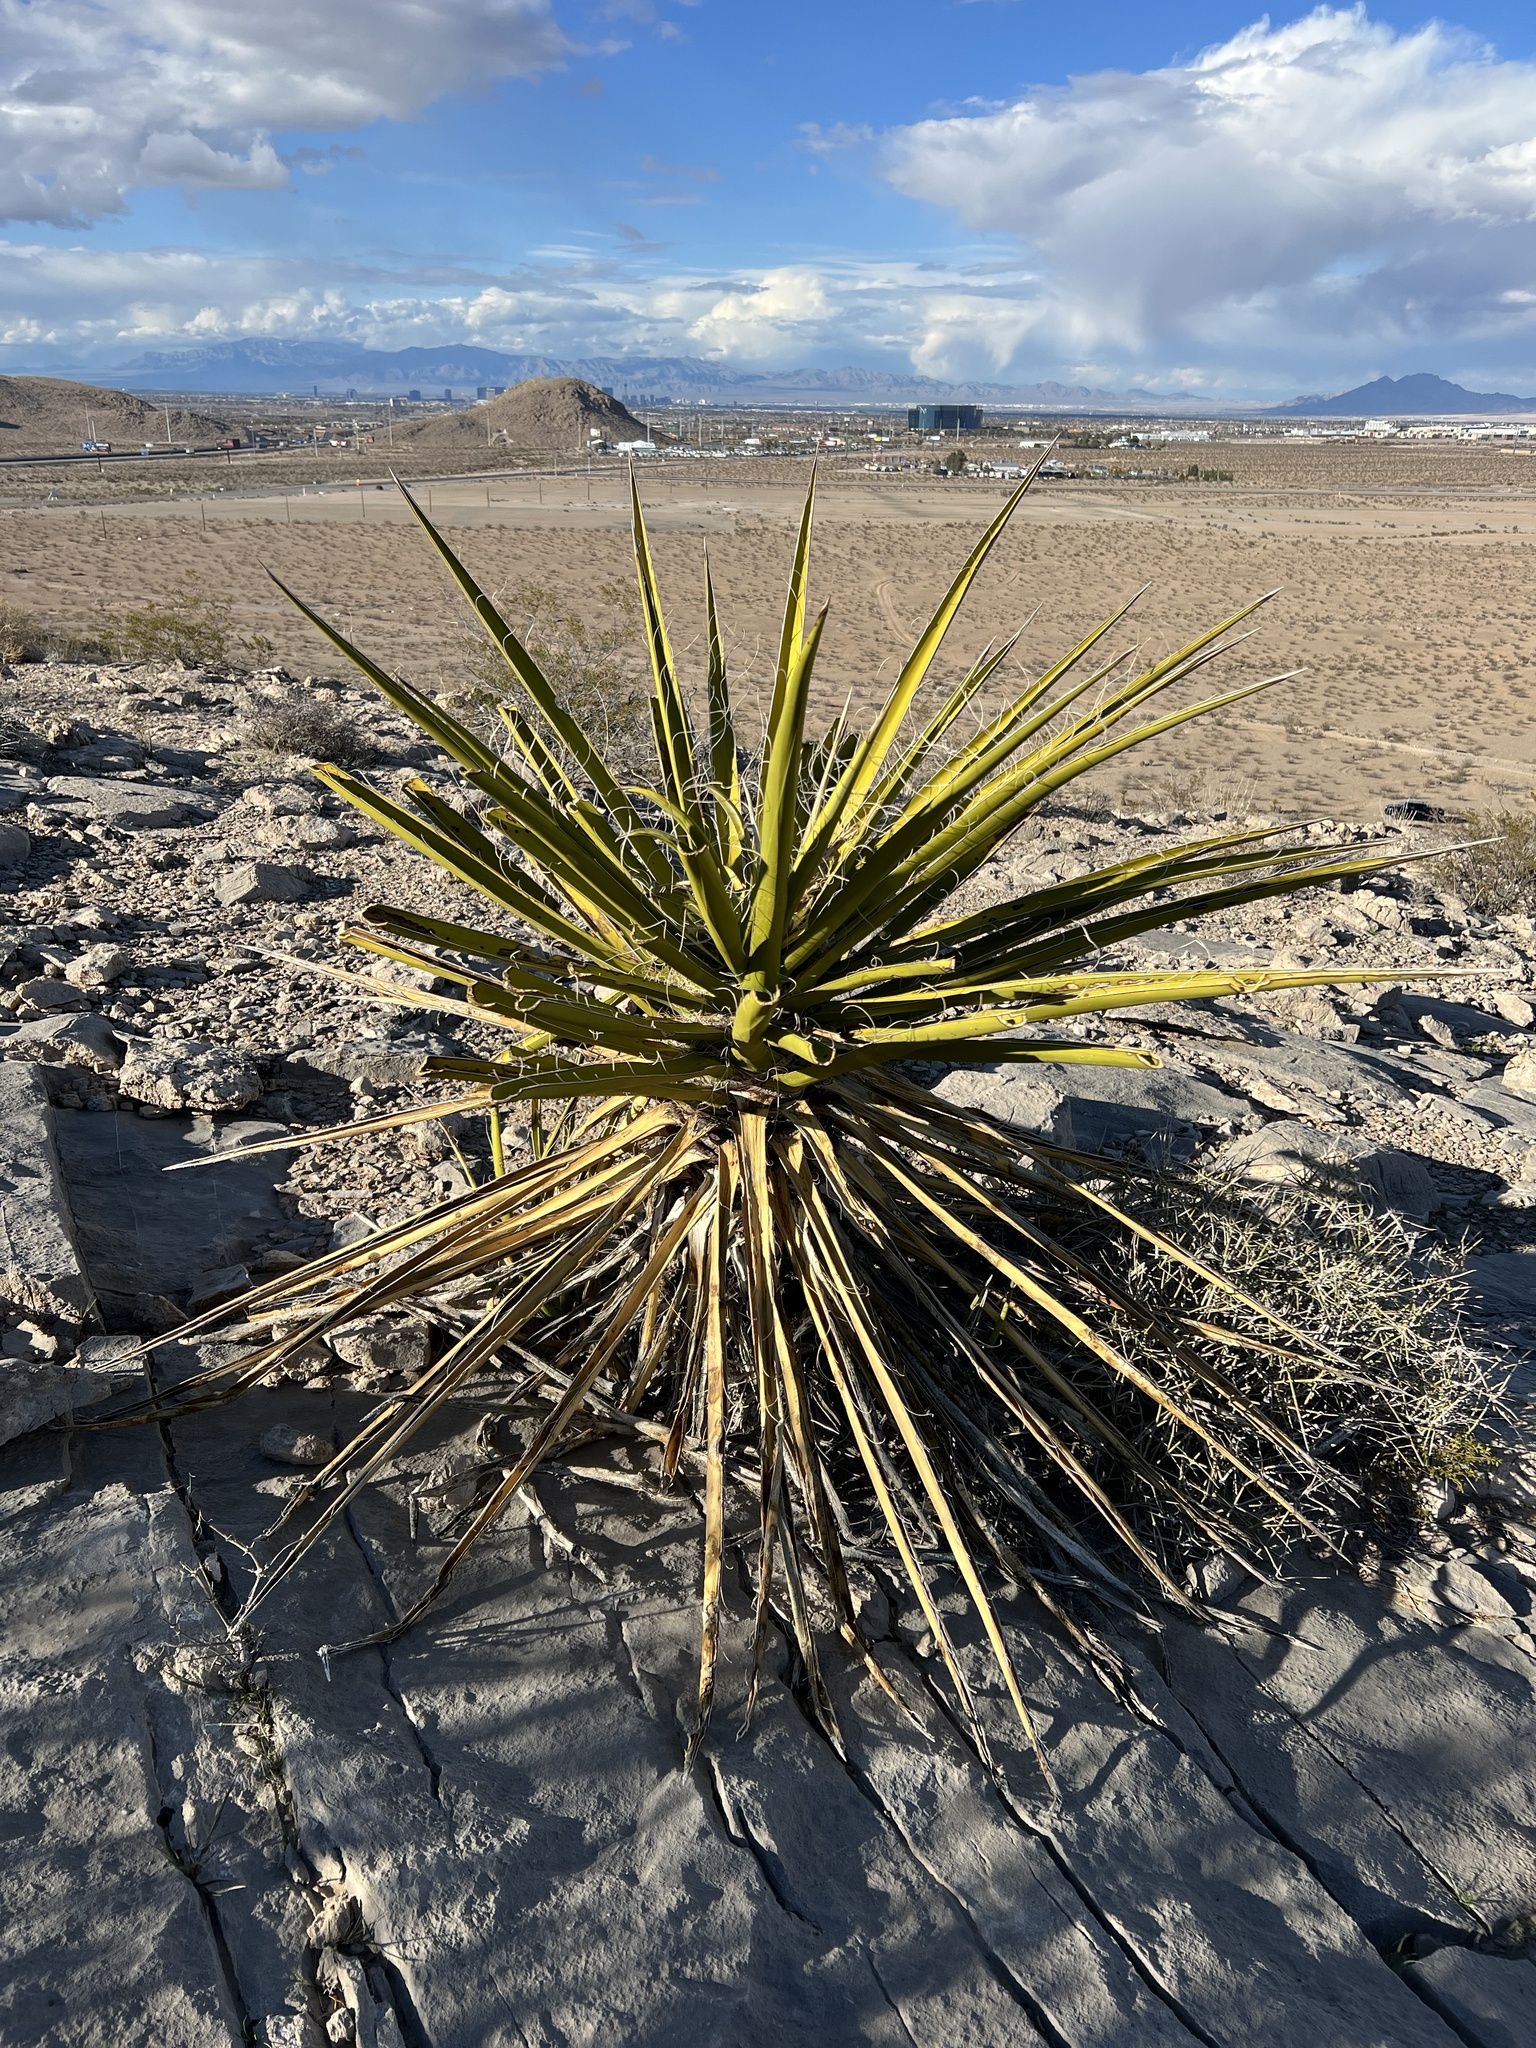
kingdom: Plantae
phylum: Tracheophyta
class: Liliopsida
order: Asparagales
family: Asparagaceae
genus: Yucca
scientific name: Yucca schidigera
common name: Mojave yucca
